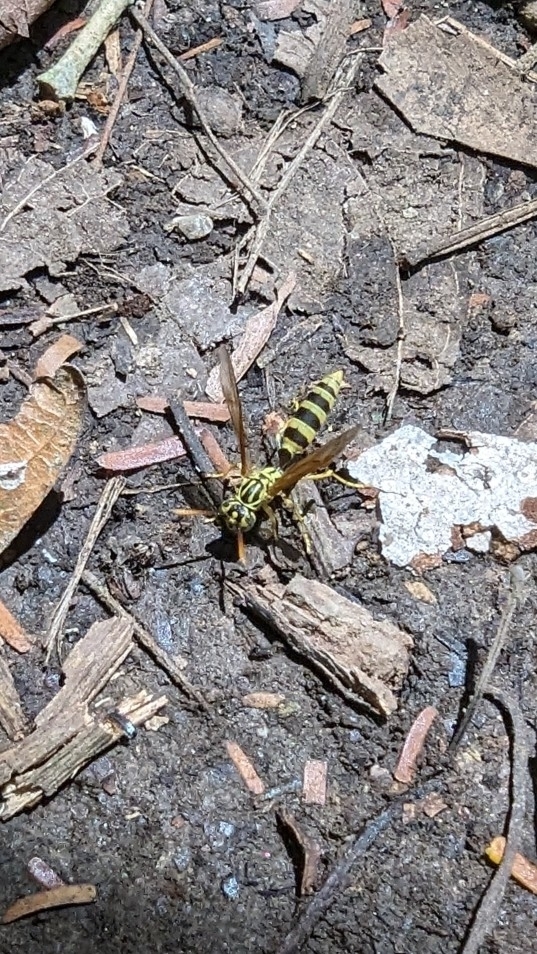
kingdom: Animalia
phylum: Arthropoda
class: Insecta
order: Hymenoptera
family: Vespidae
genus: Agelaia
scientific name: Agelaia areata
